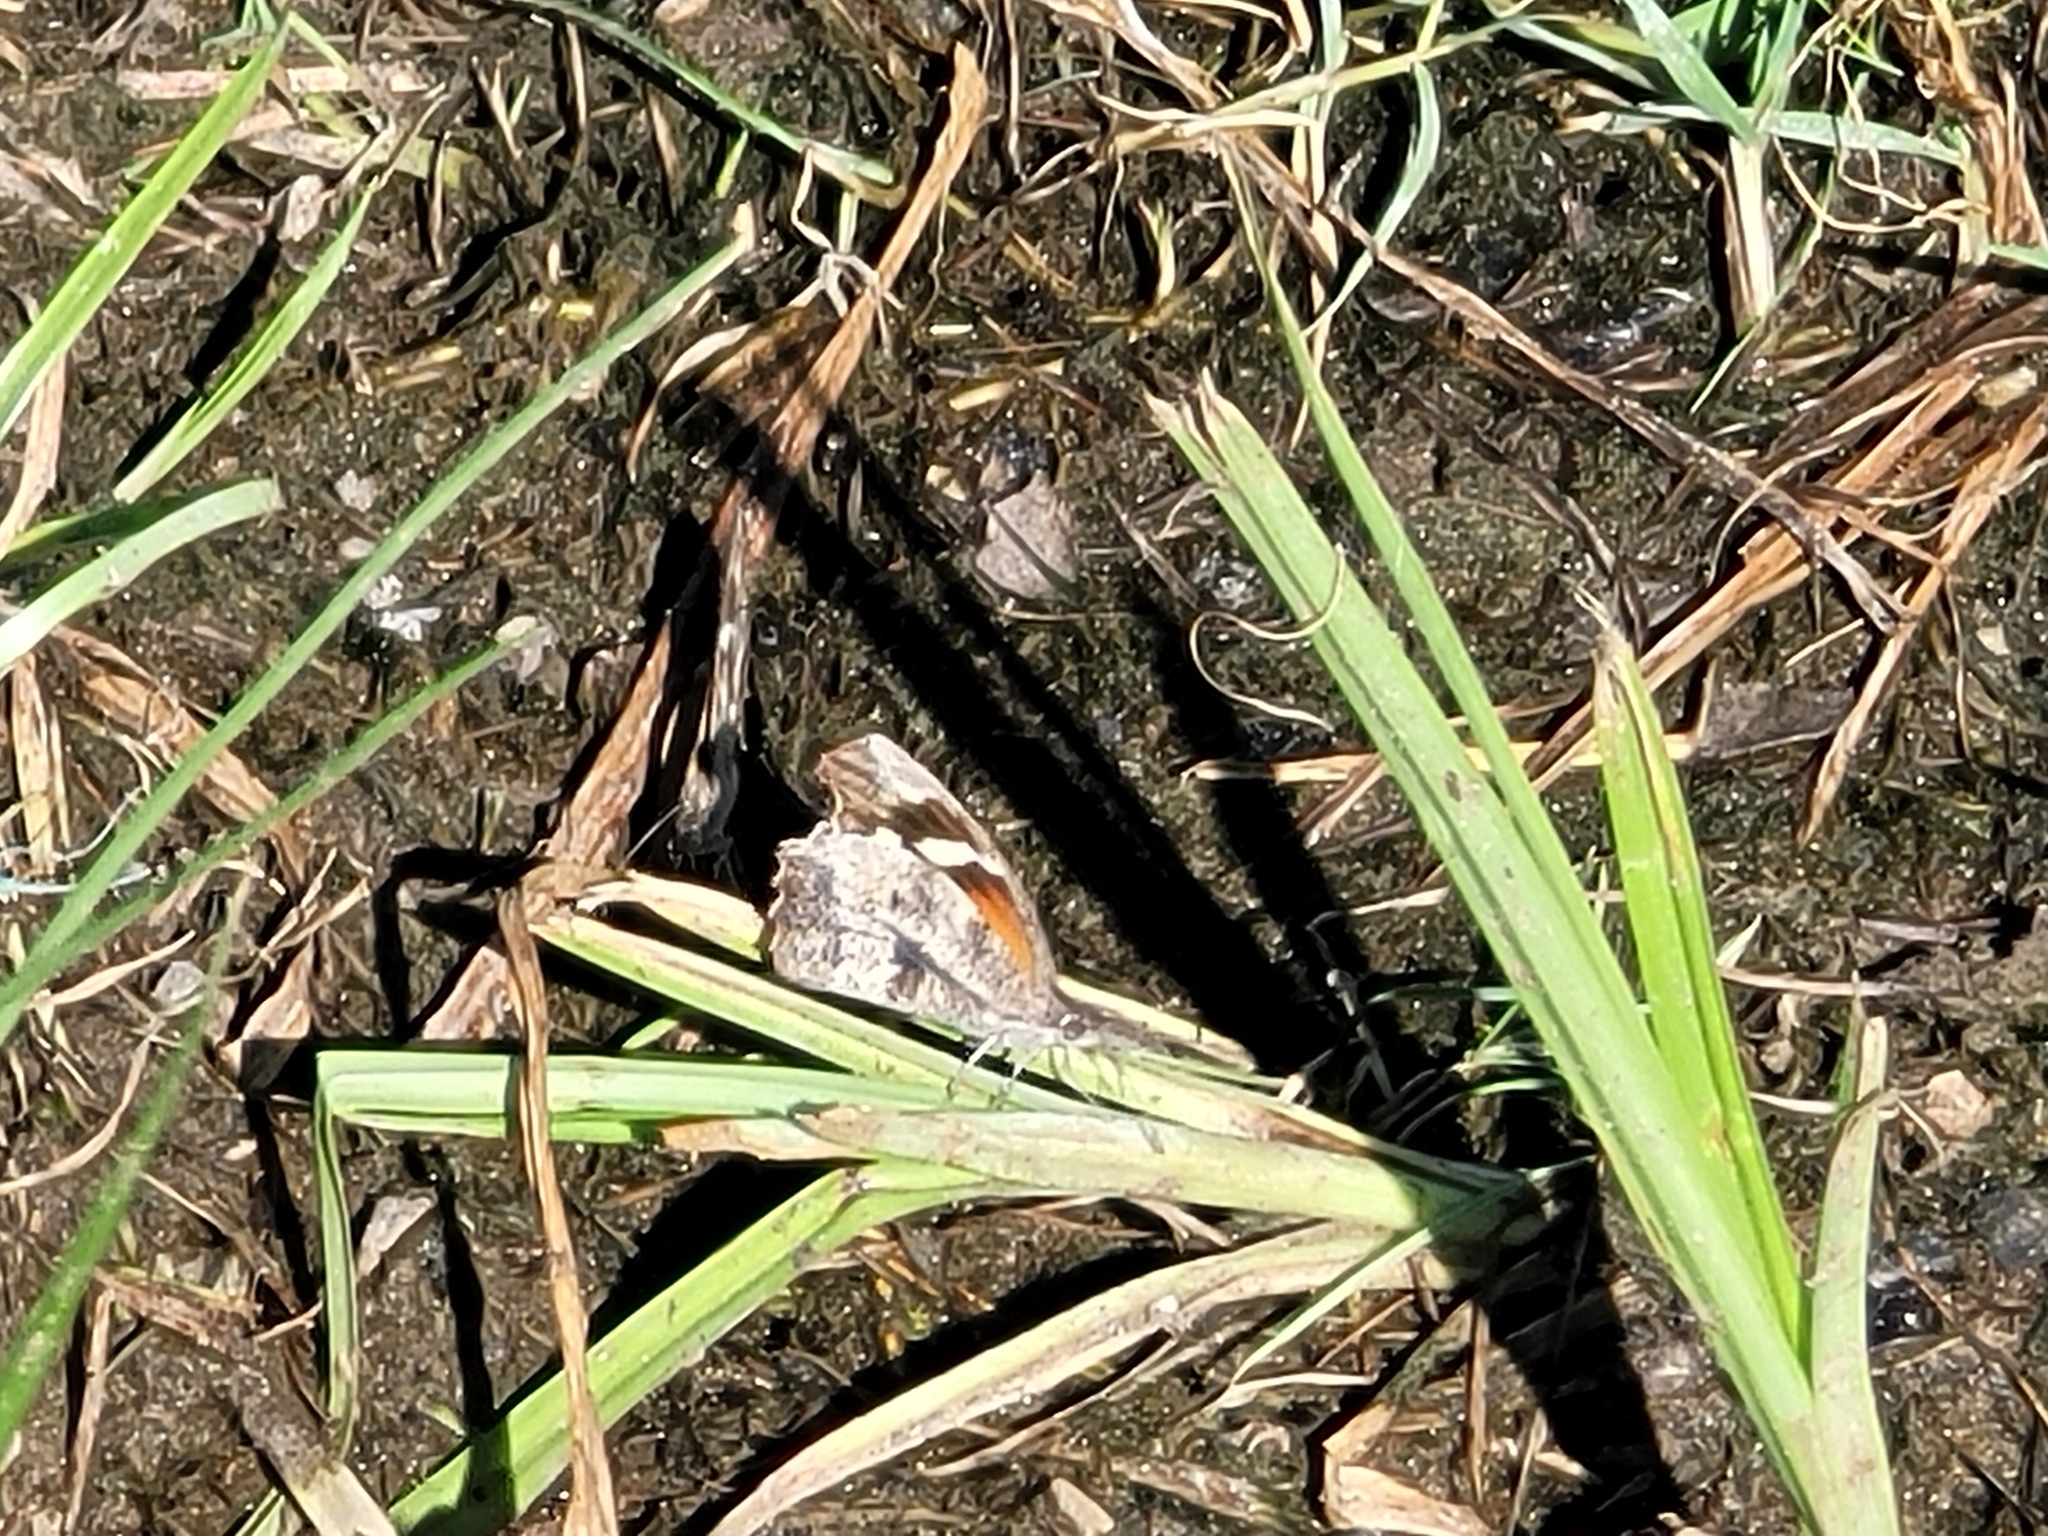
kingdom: Animalia
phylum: Arthropoda
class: Insecta
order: Lepidoptera
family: Nymphalidae
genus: Libytheana
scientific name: Libytheana carinenta
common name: American snout
